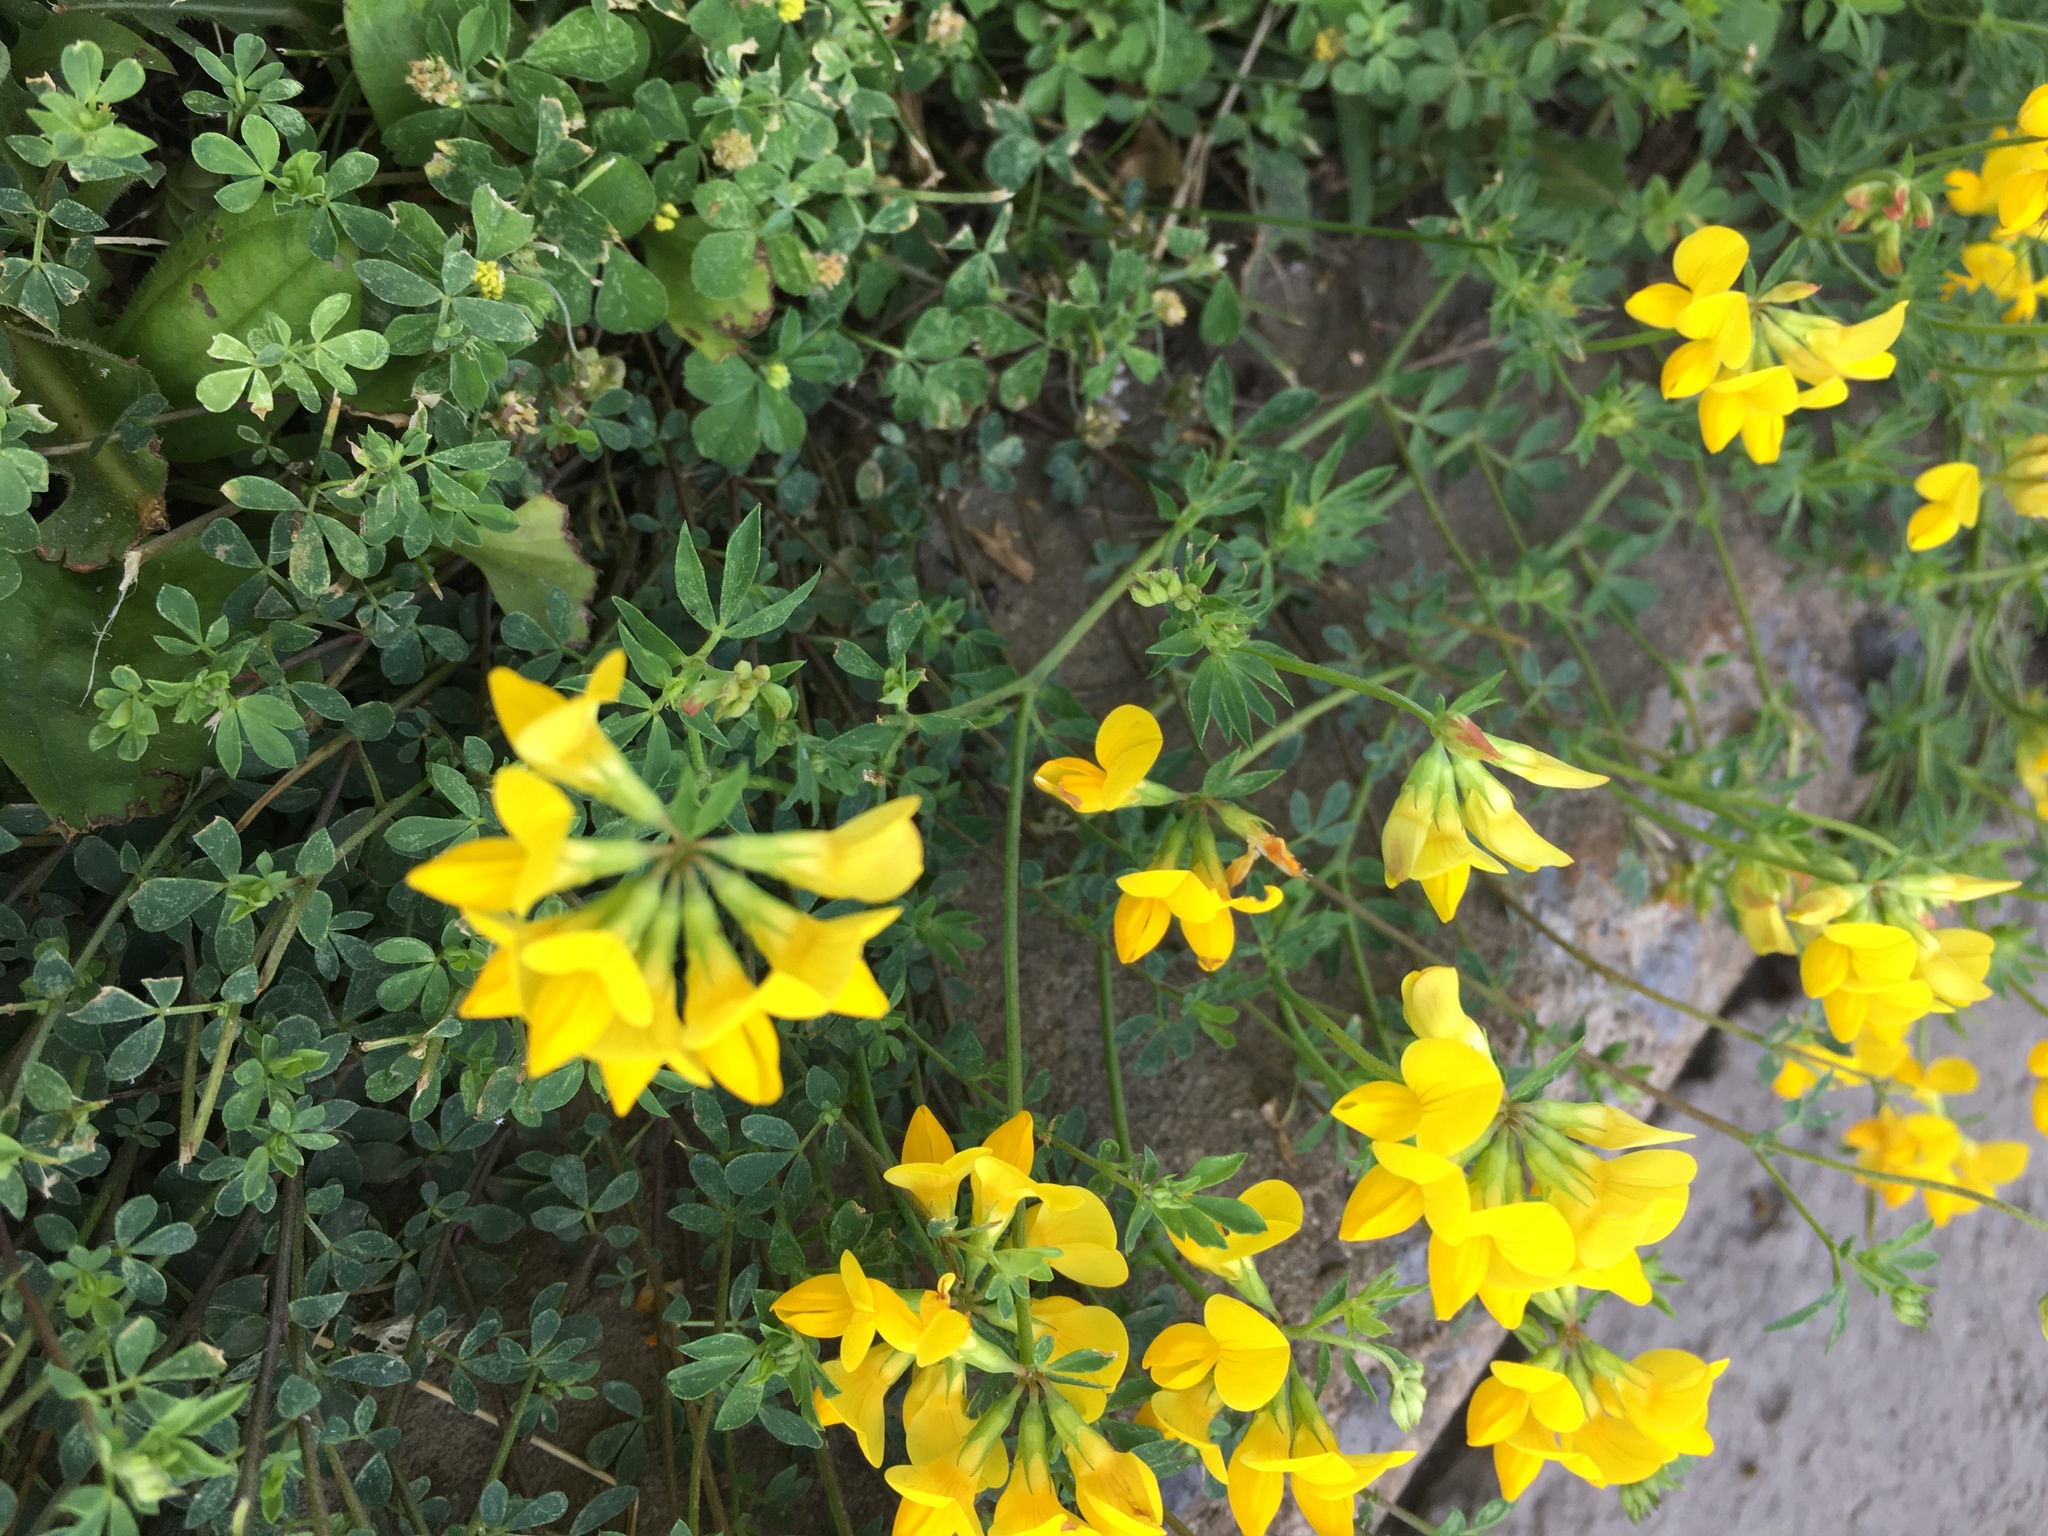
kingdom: Plantae
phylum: Tracheophyta
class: Magnoliopsida
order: Fabales
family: Fabaceae
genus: Lotus
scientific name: Lotus corniculatus
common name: Common bird's-foot-trefoil
